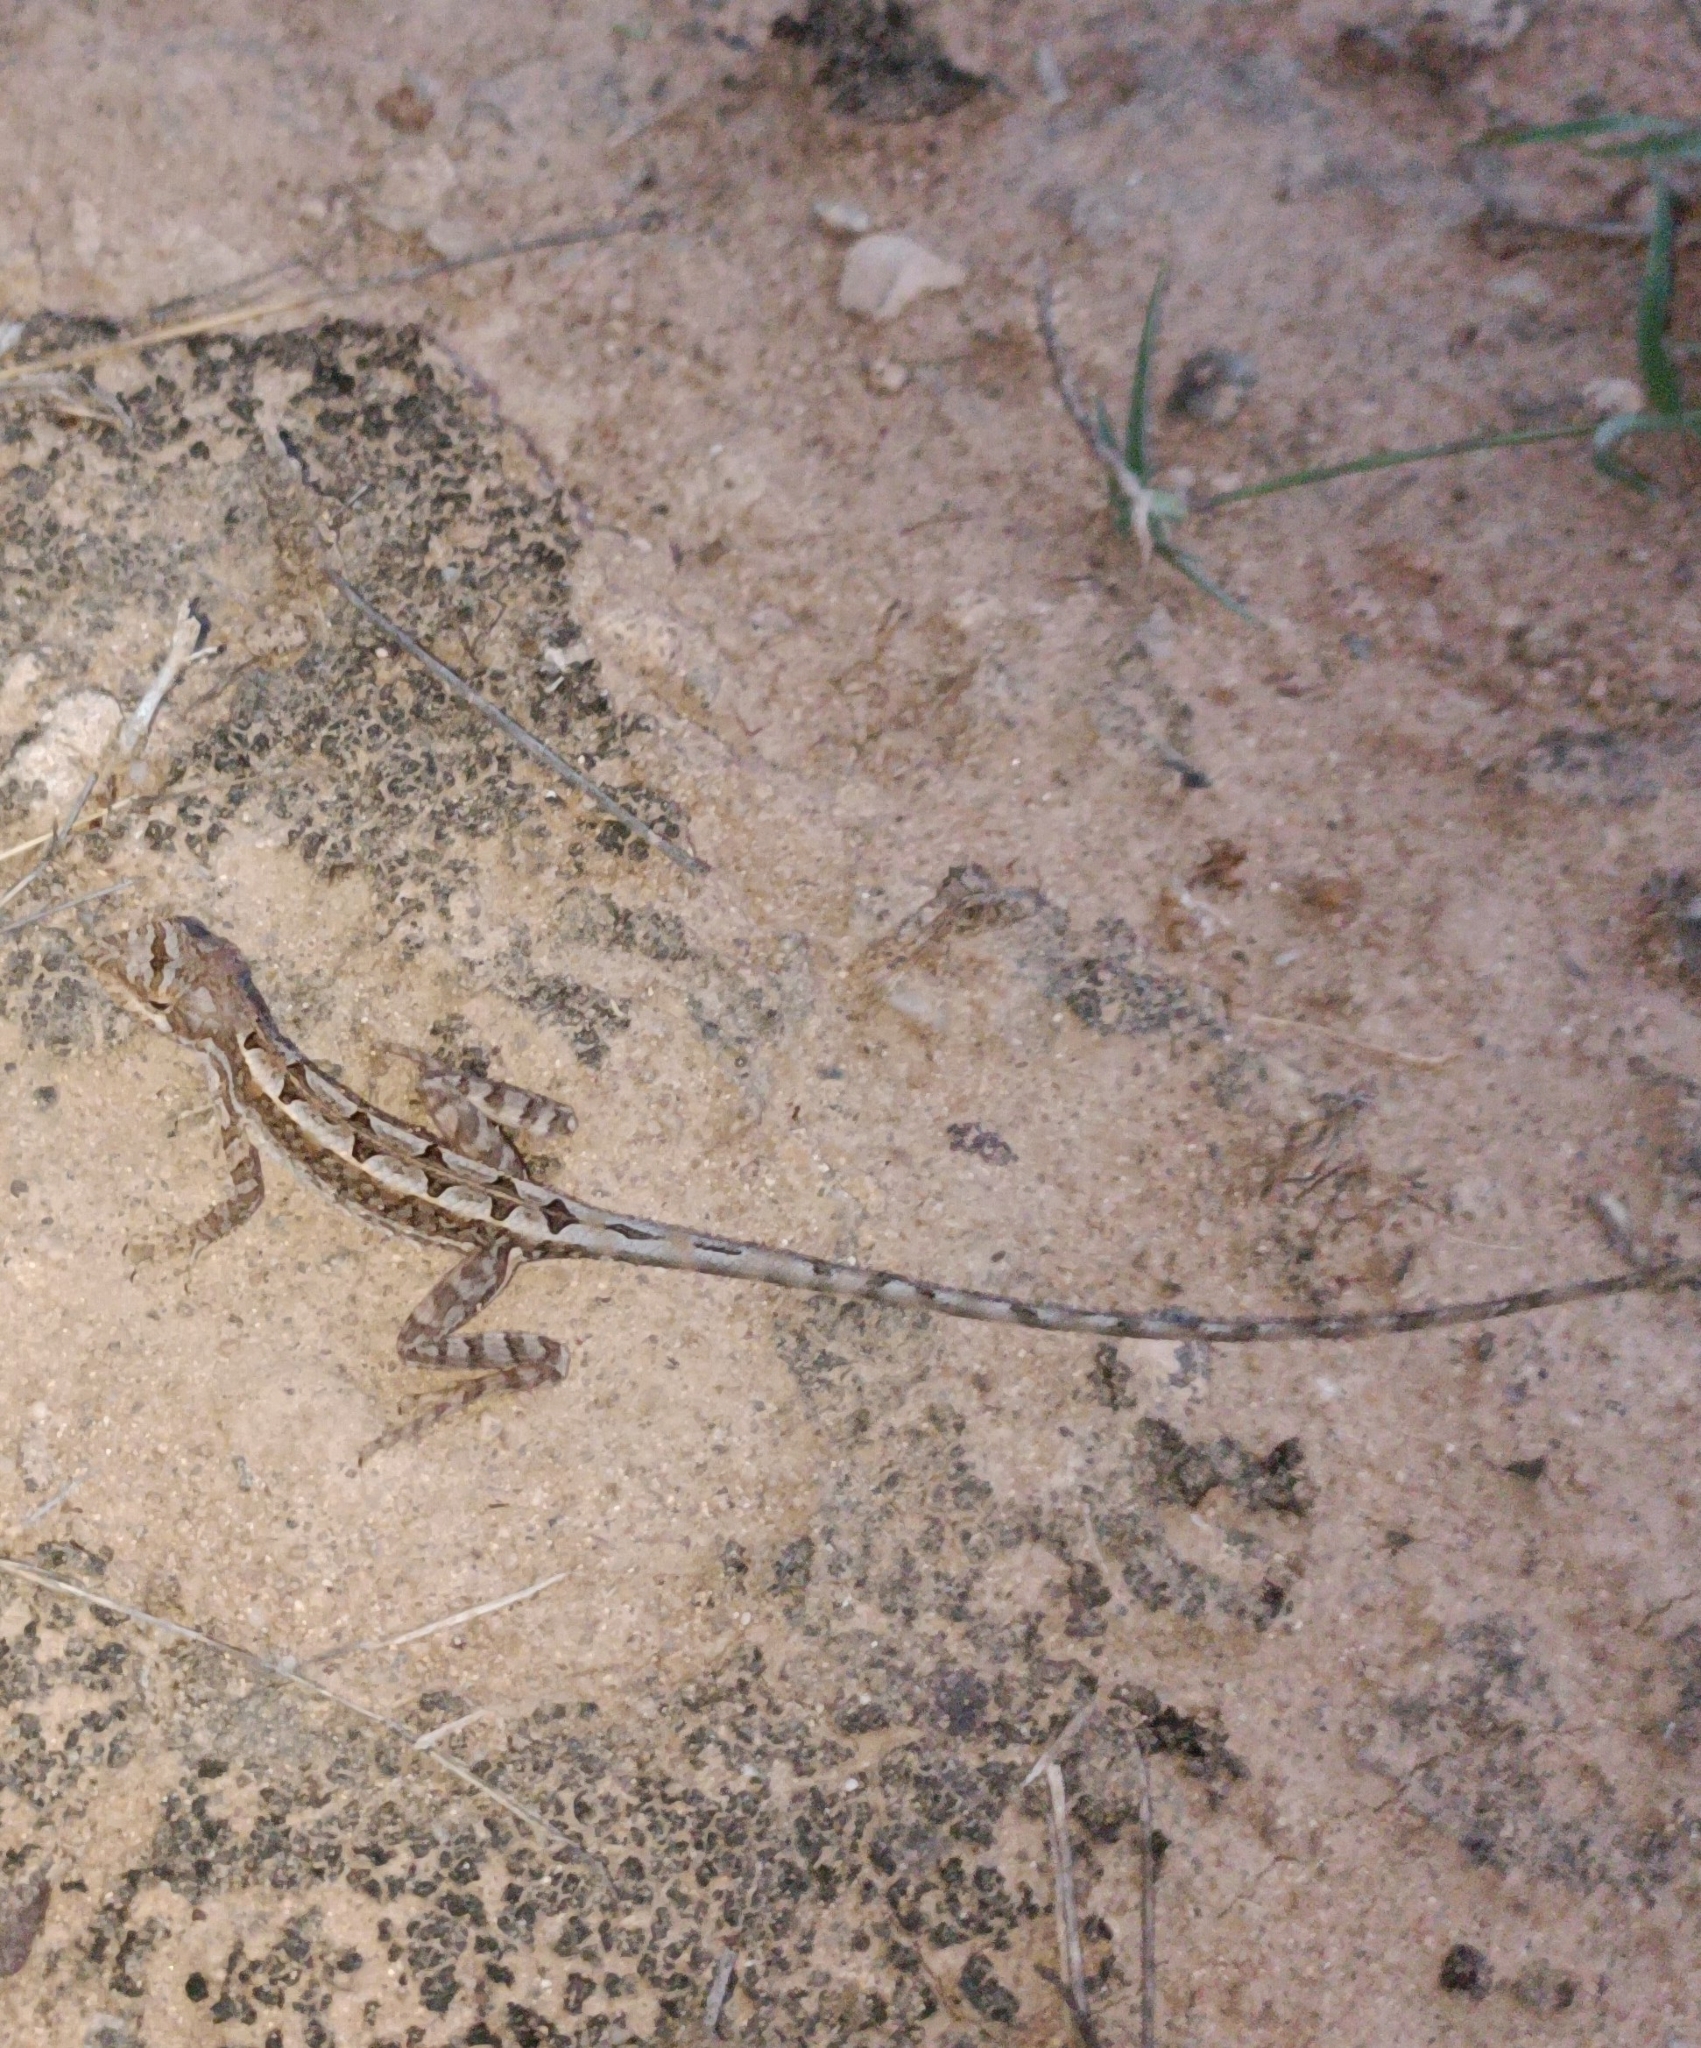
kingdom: Animalia
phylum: Chordata
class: Squamata
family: Agamidae
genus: Sitana
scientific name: Sitana spinaecephalus
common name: Spiny-headed fan-throated lizard
